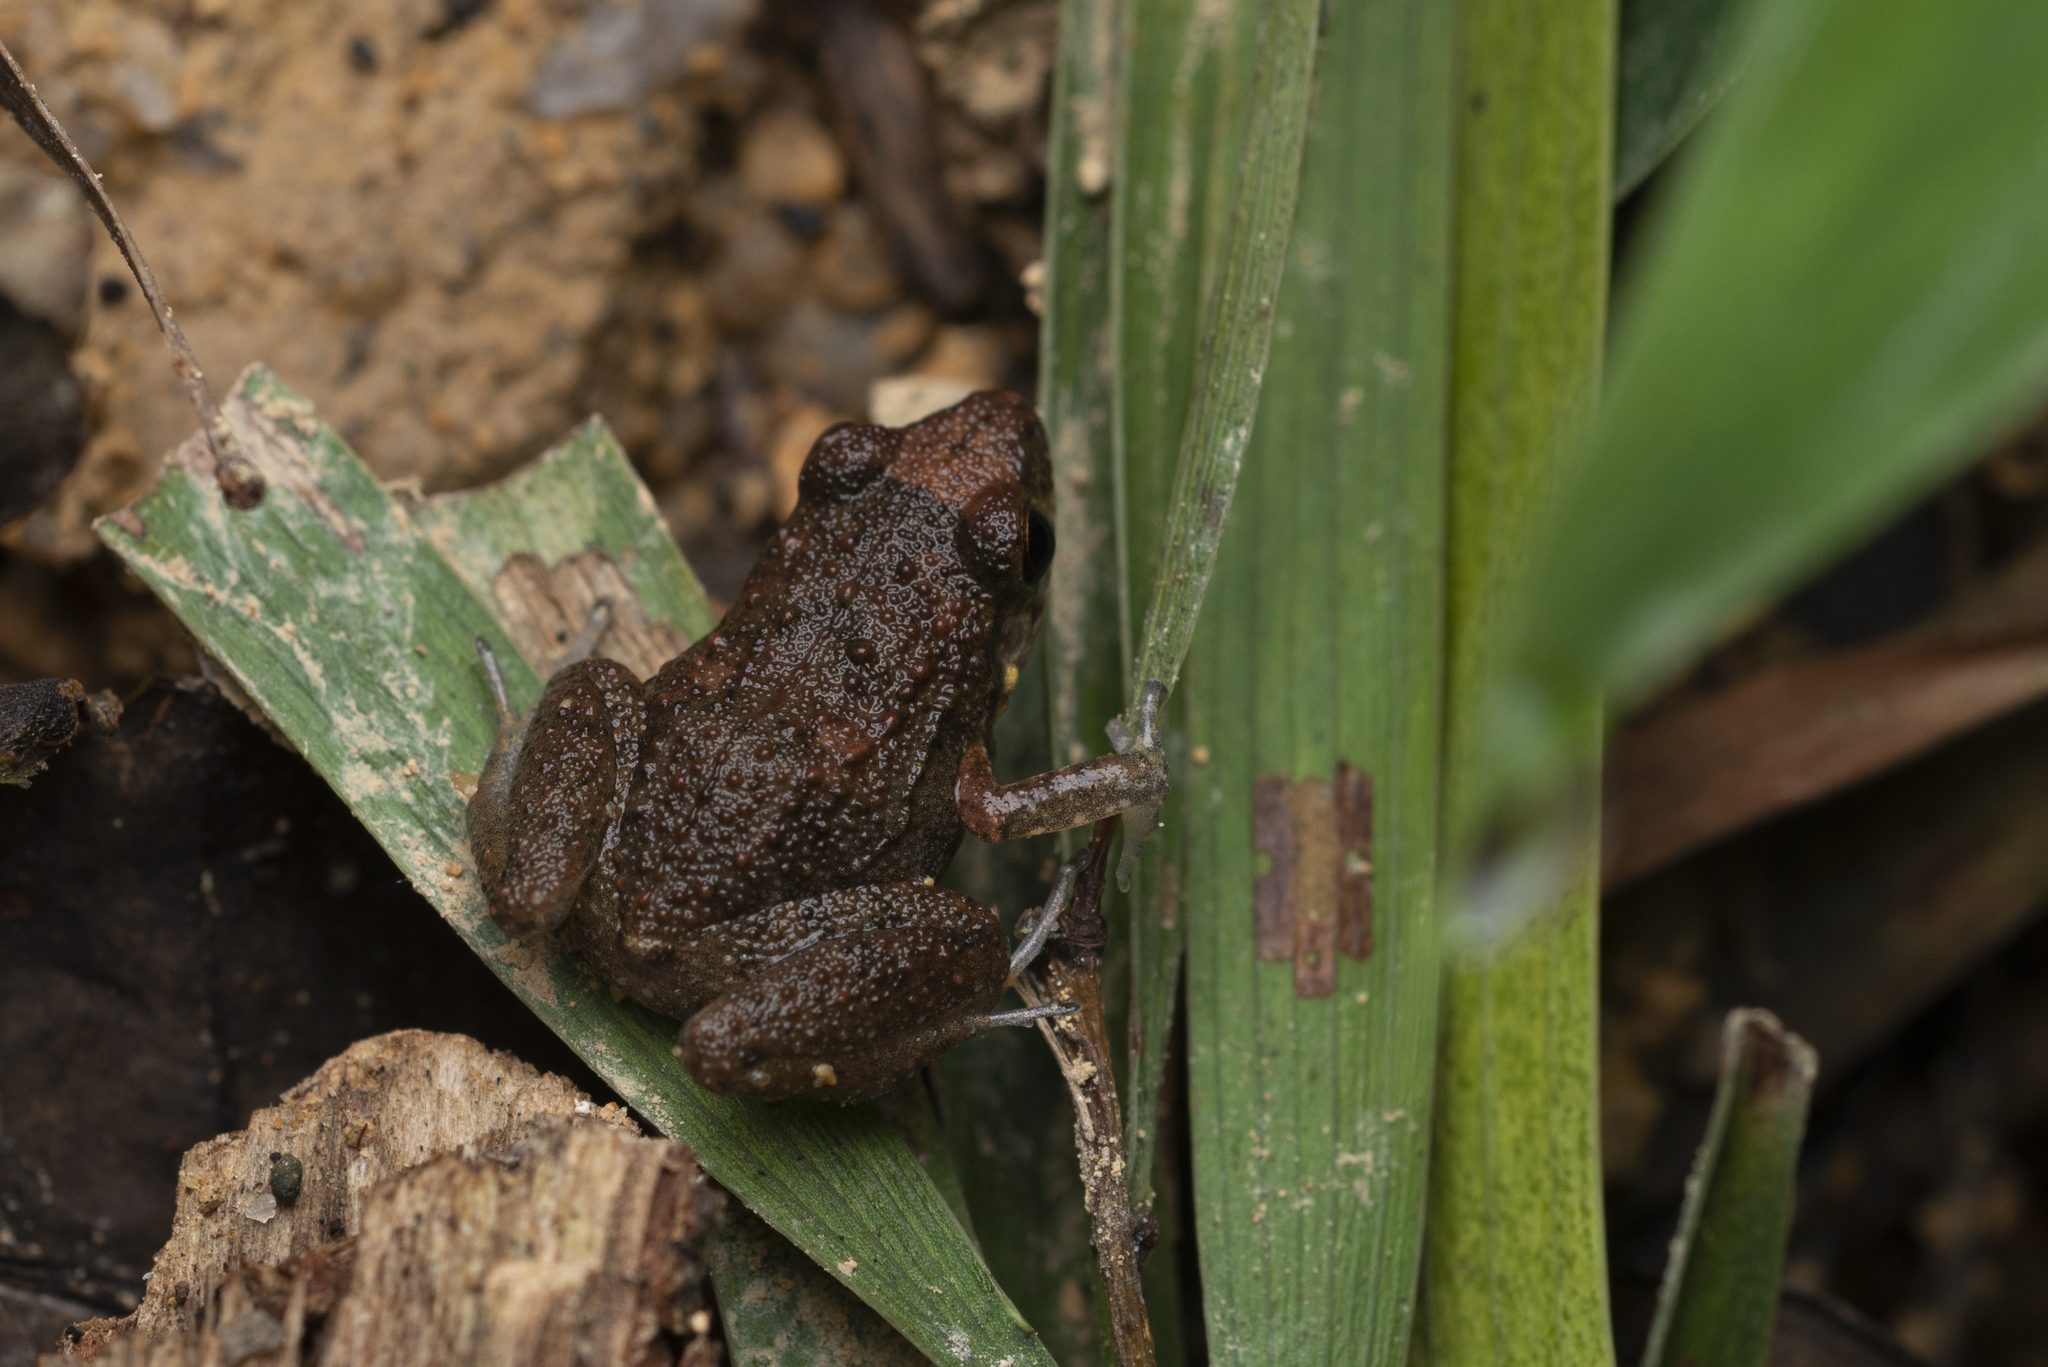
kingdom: Animalia
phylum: Chordata
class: Amphibia
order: Anura
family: Eleutherodactylidae
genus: Eleutherodactylus
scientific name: Eleutherodactylus planirostris
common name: Greenhouse frog
